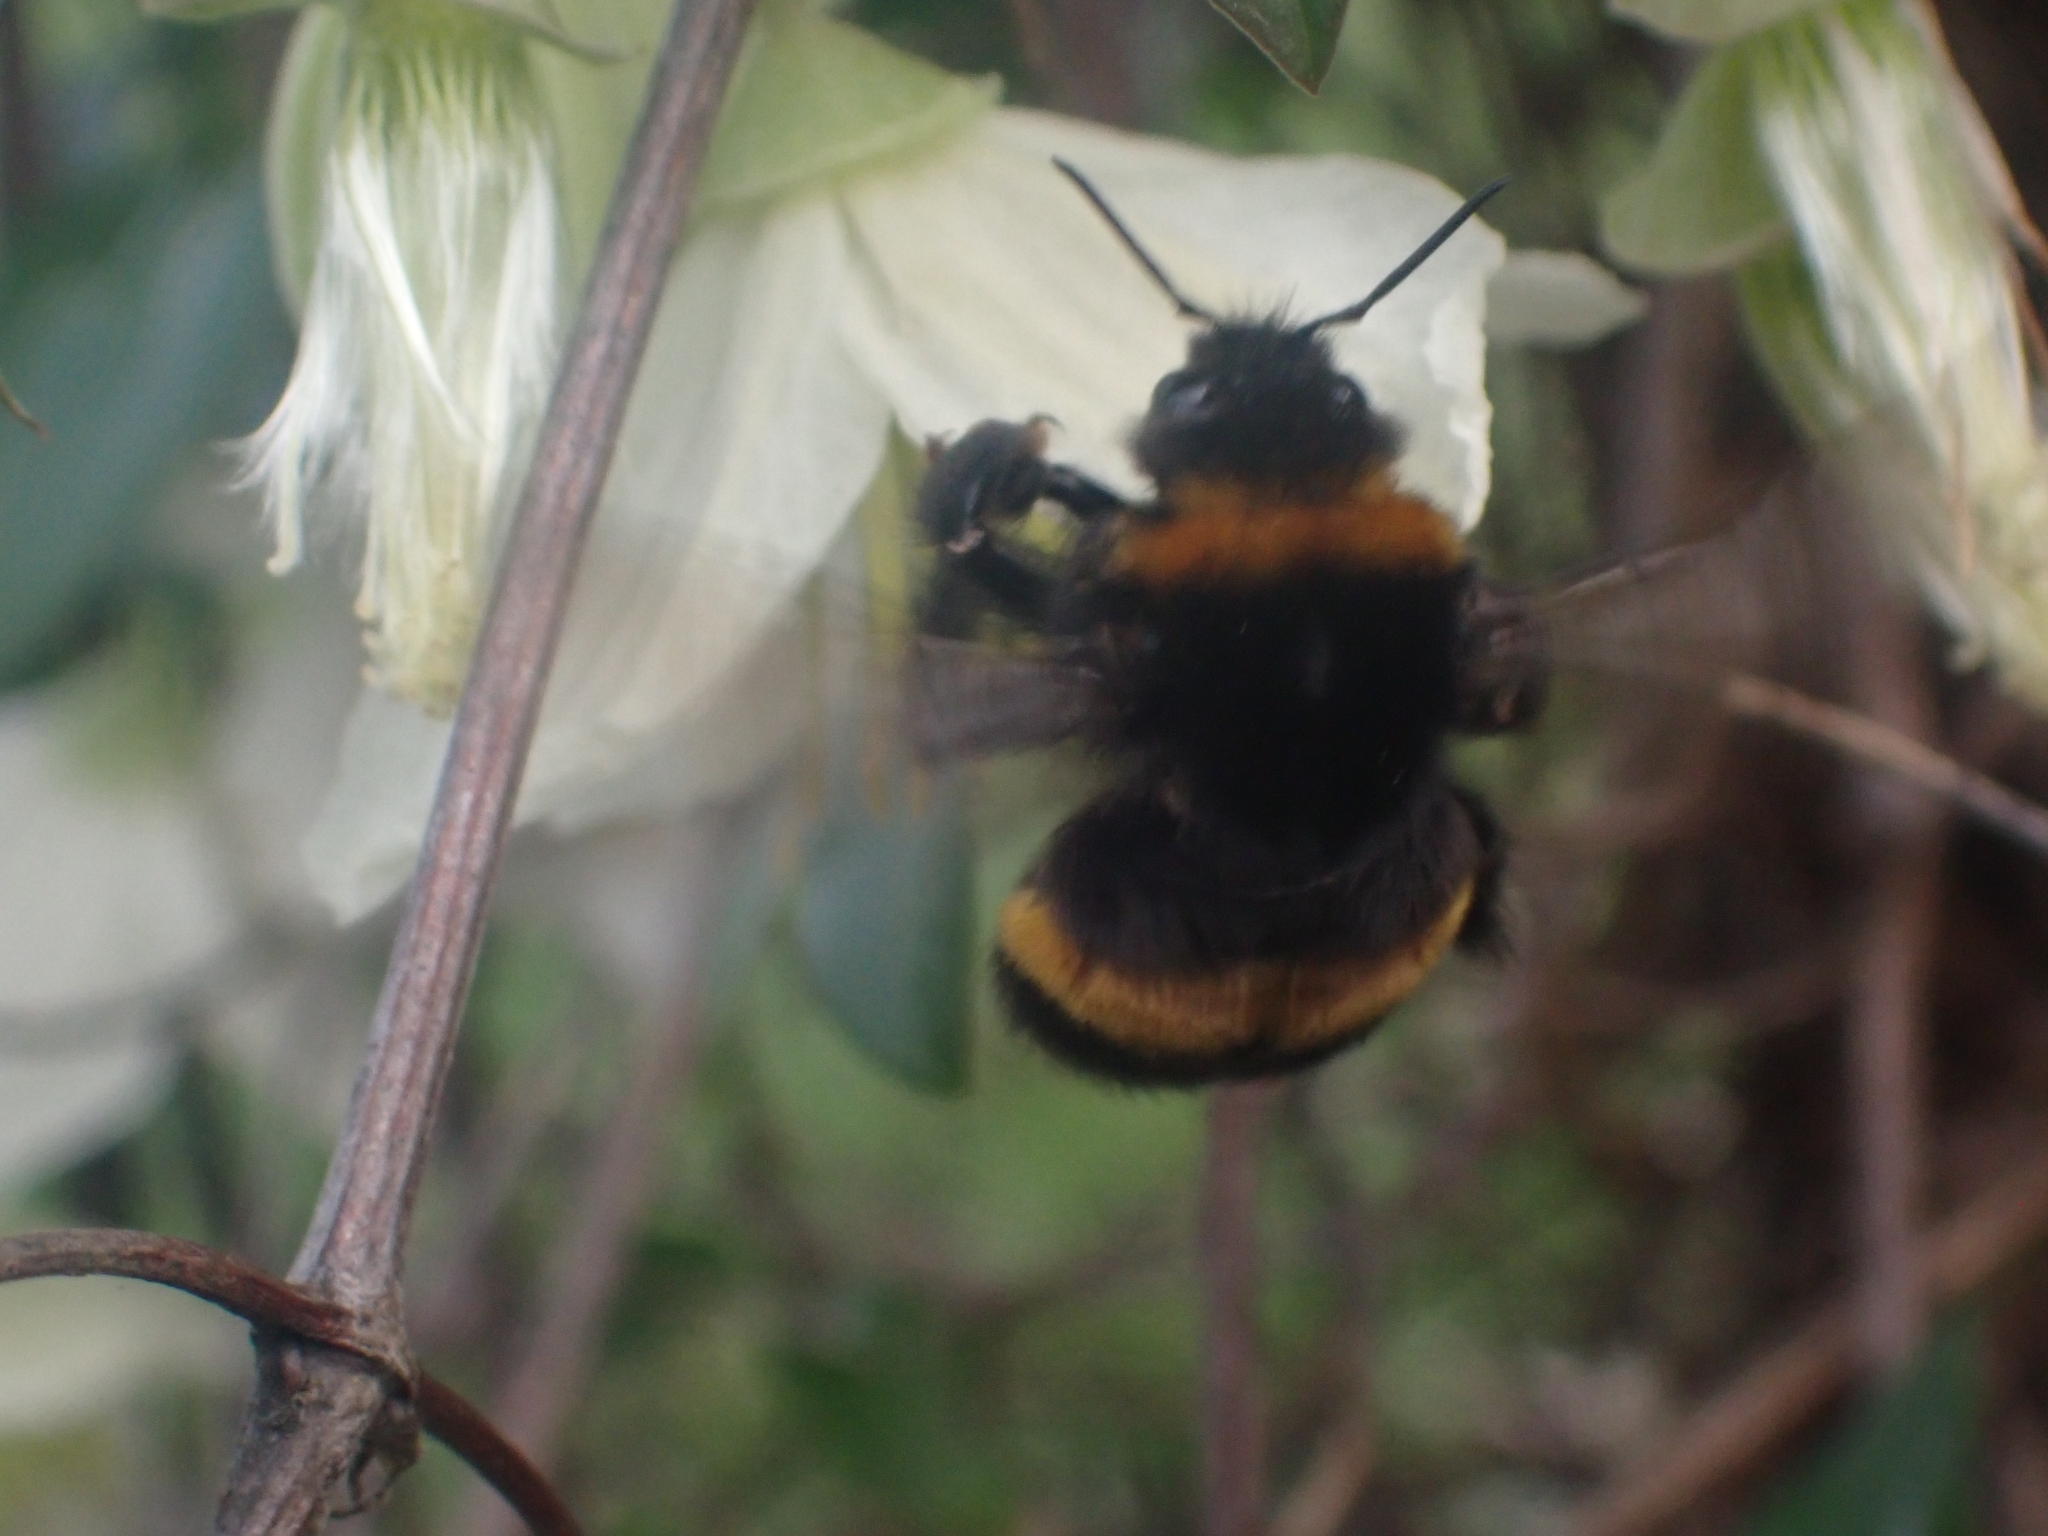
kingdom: Animalia
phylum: Arthropoda
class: Insecta
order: Hymenoptera
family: Apidae
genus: Bombus
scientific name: Bombus terrestris
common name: Buff-tailed bumblebee
